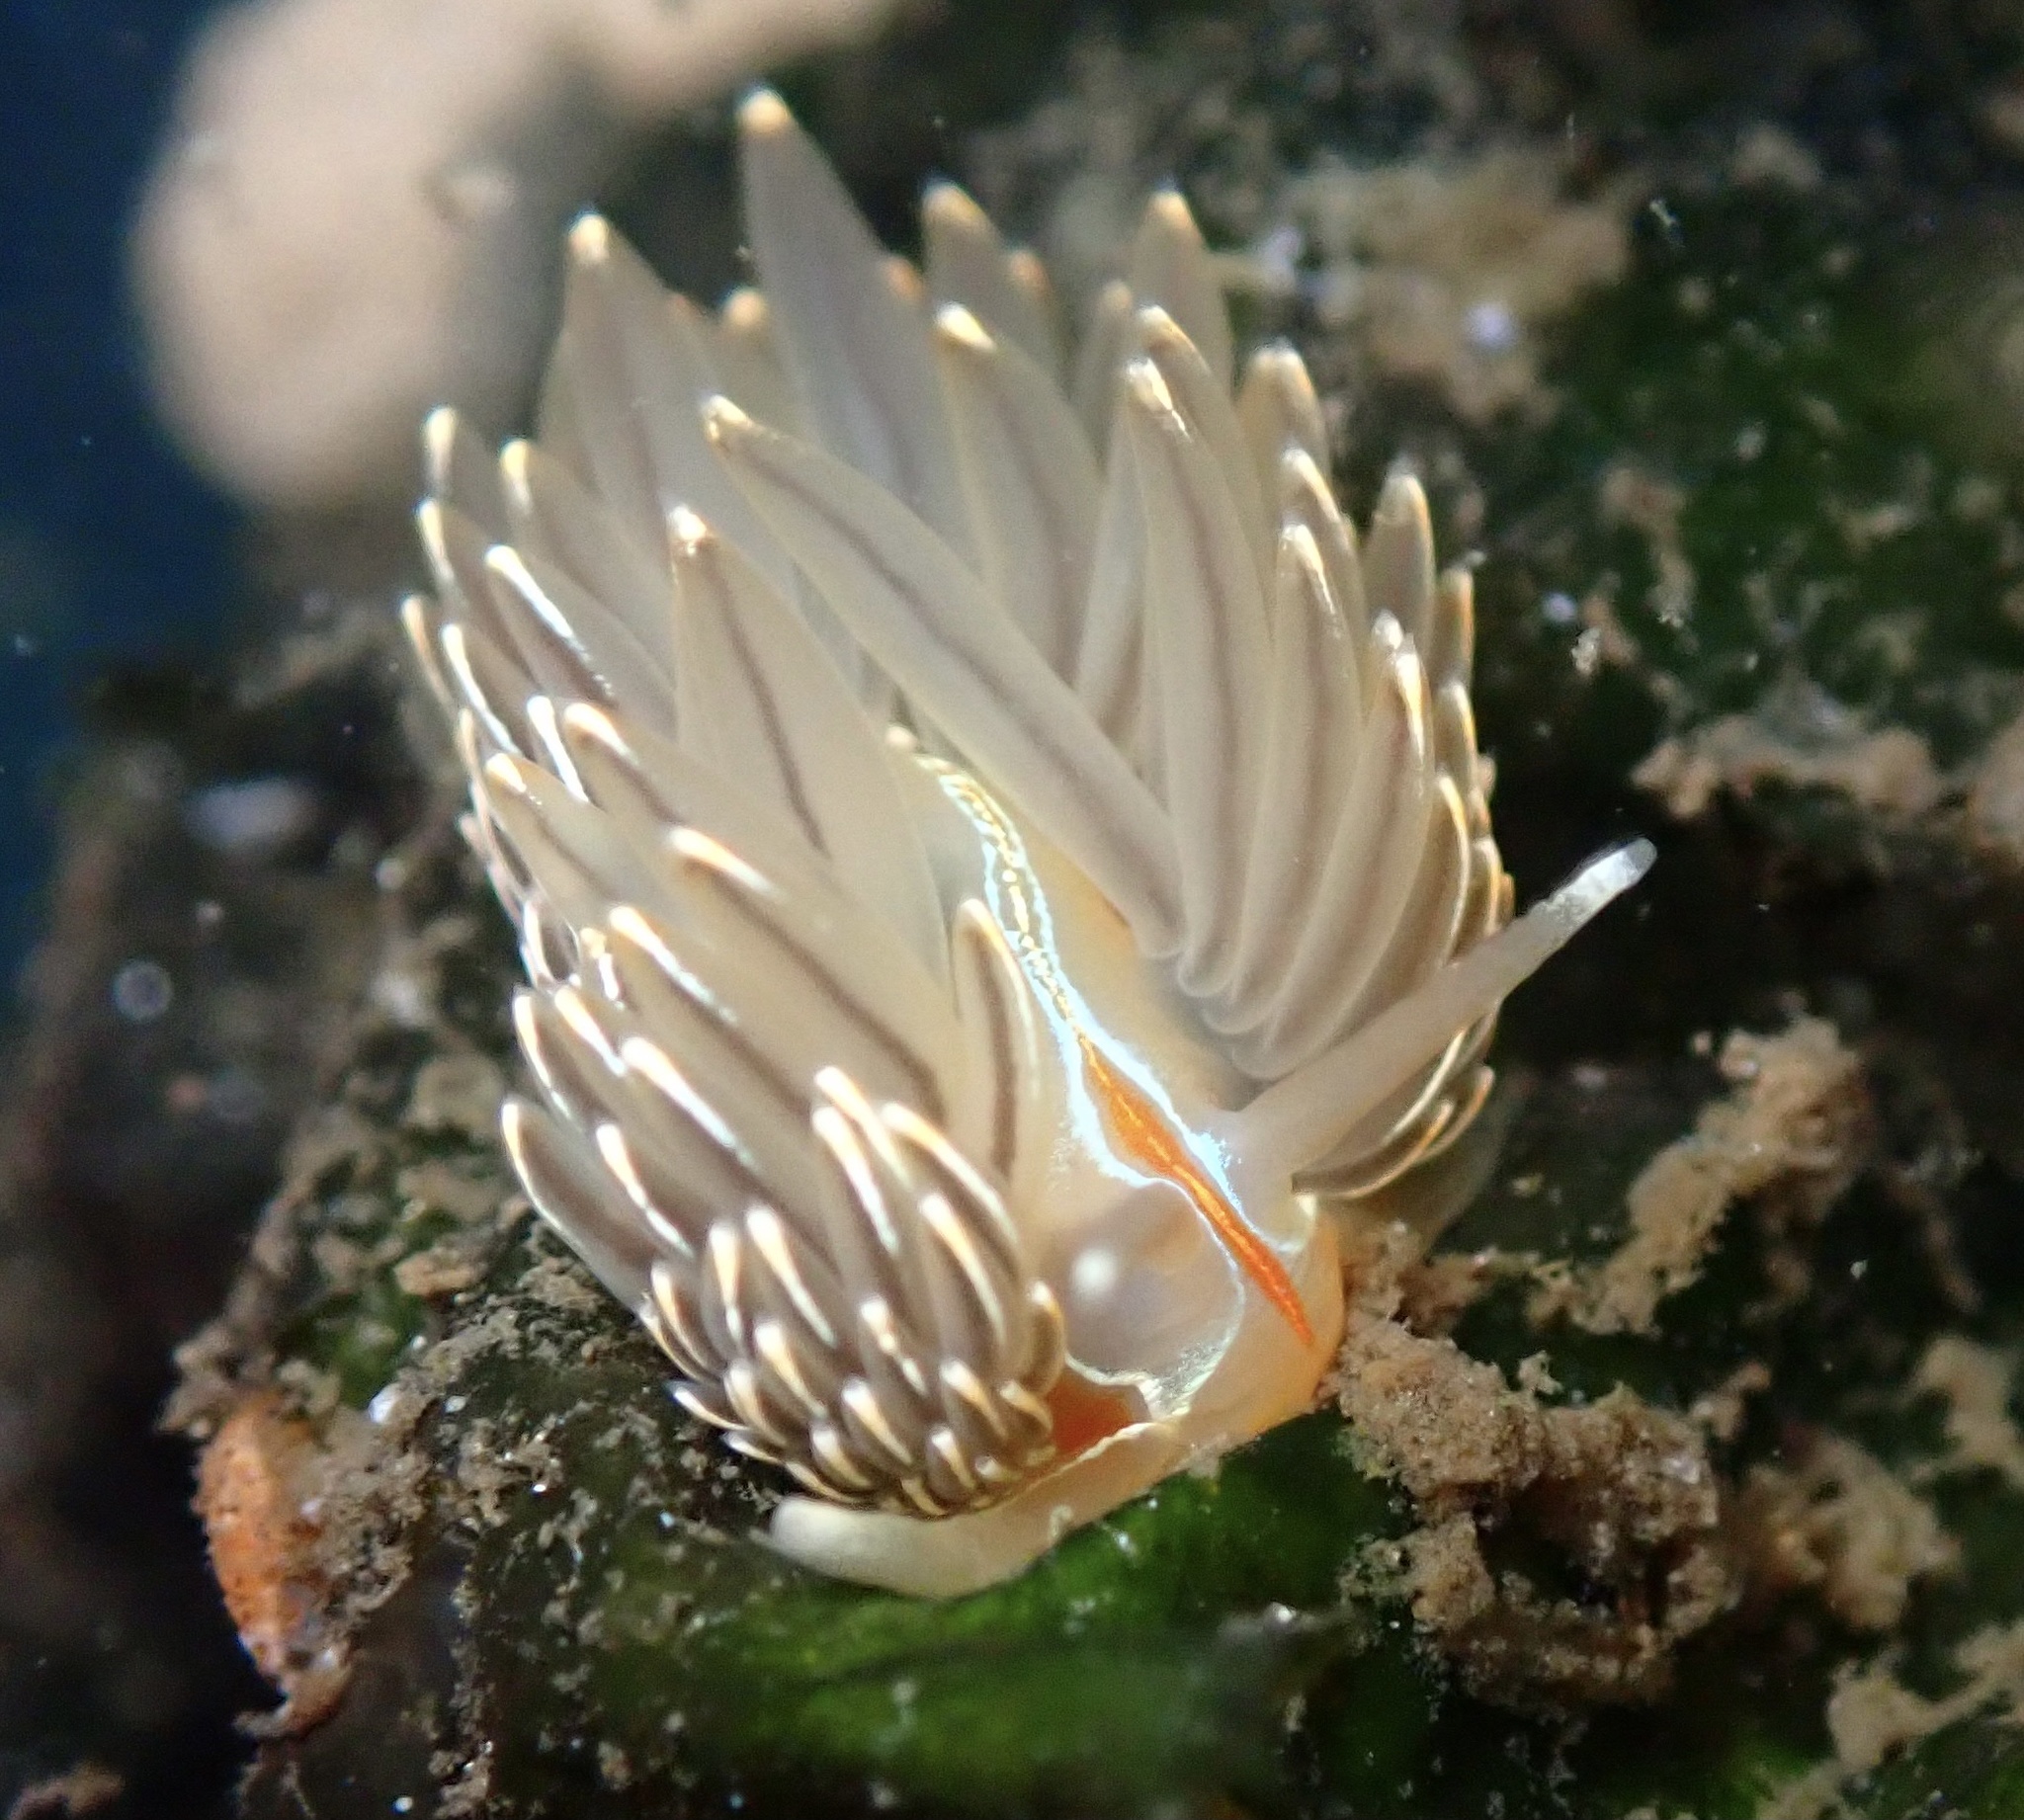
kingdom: Animalia
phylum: Mollusca
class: Gastropoda
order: Nudibranchia
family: Myrrhinidae
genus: Hermissenda
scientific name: Hermissenda crassicornis
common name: Hermissenda
